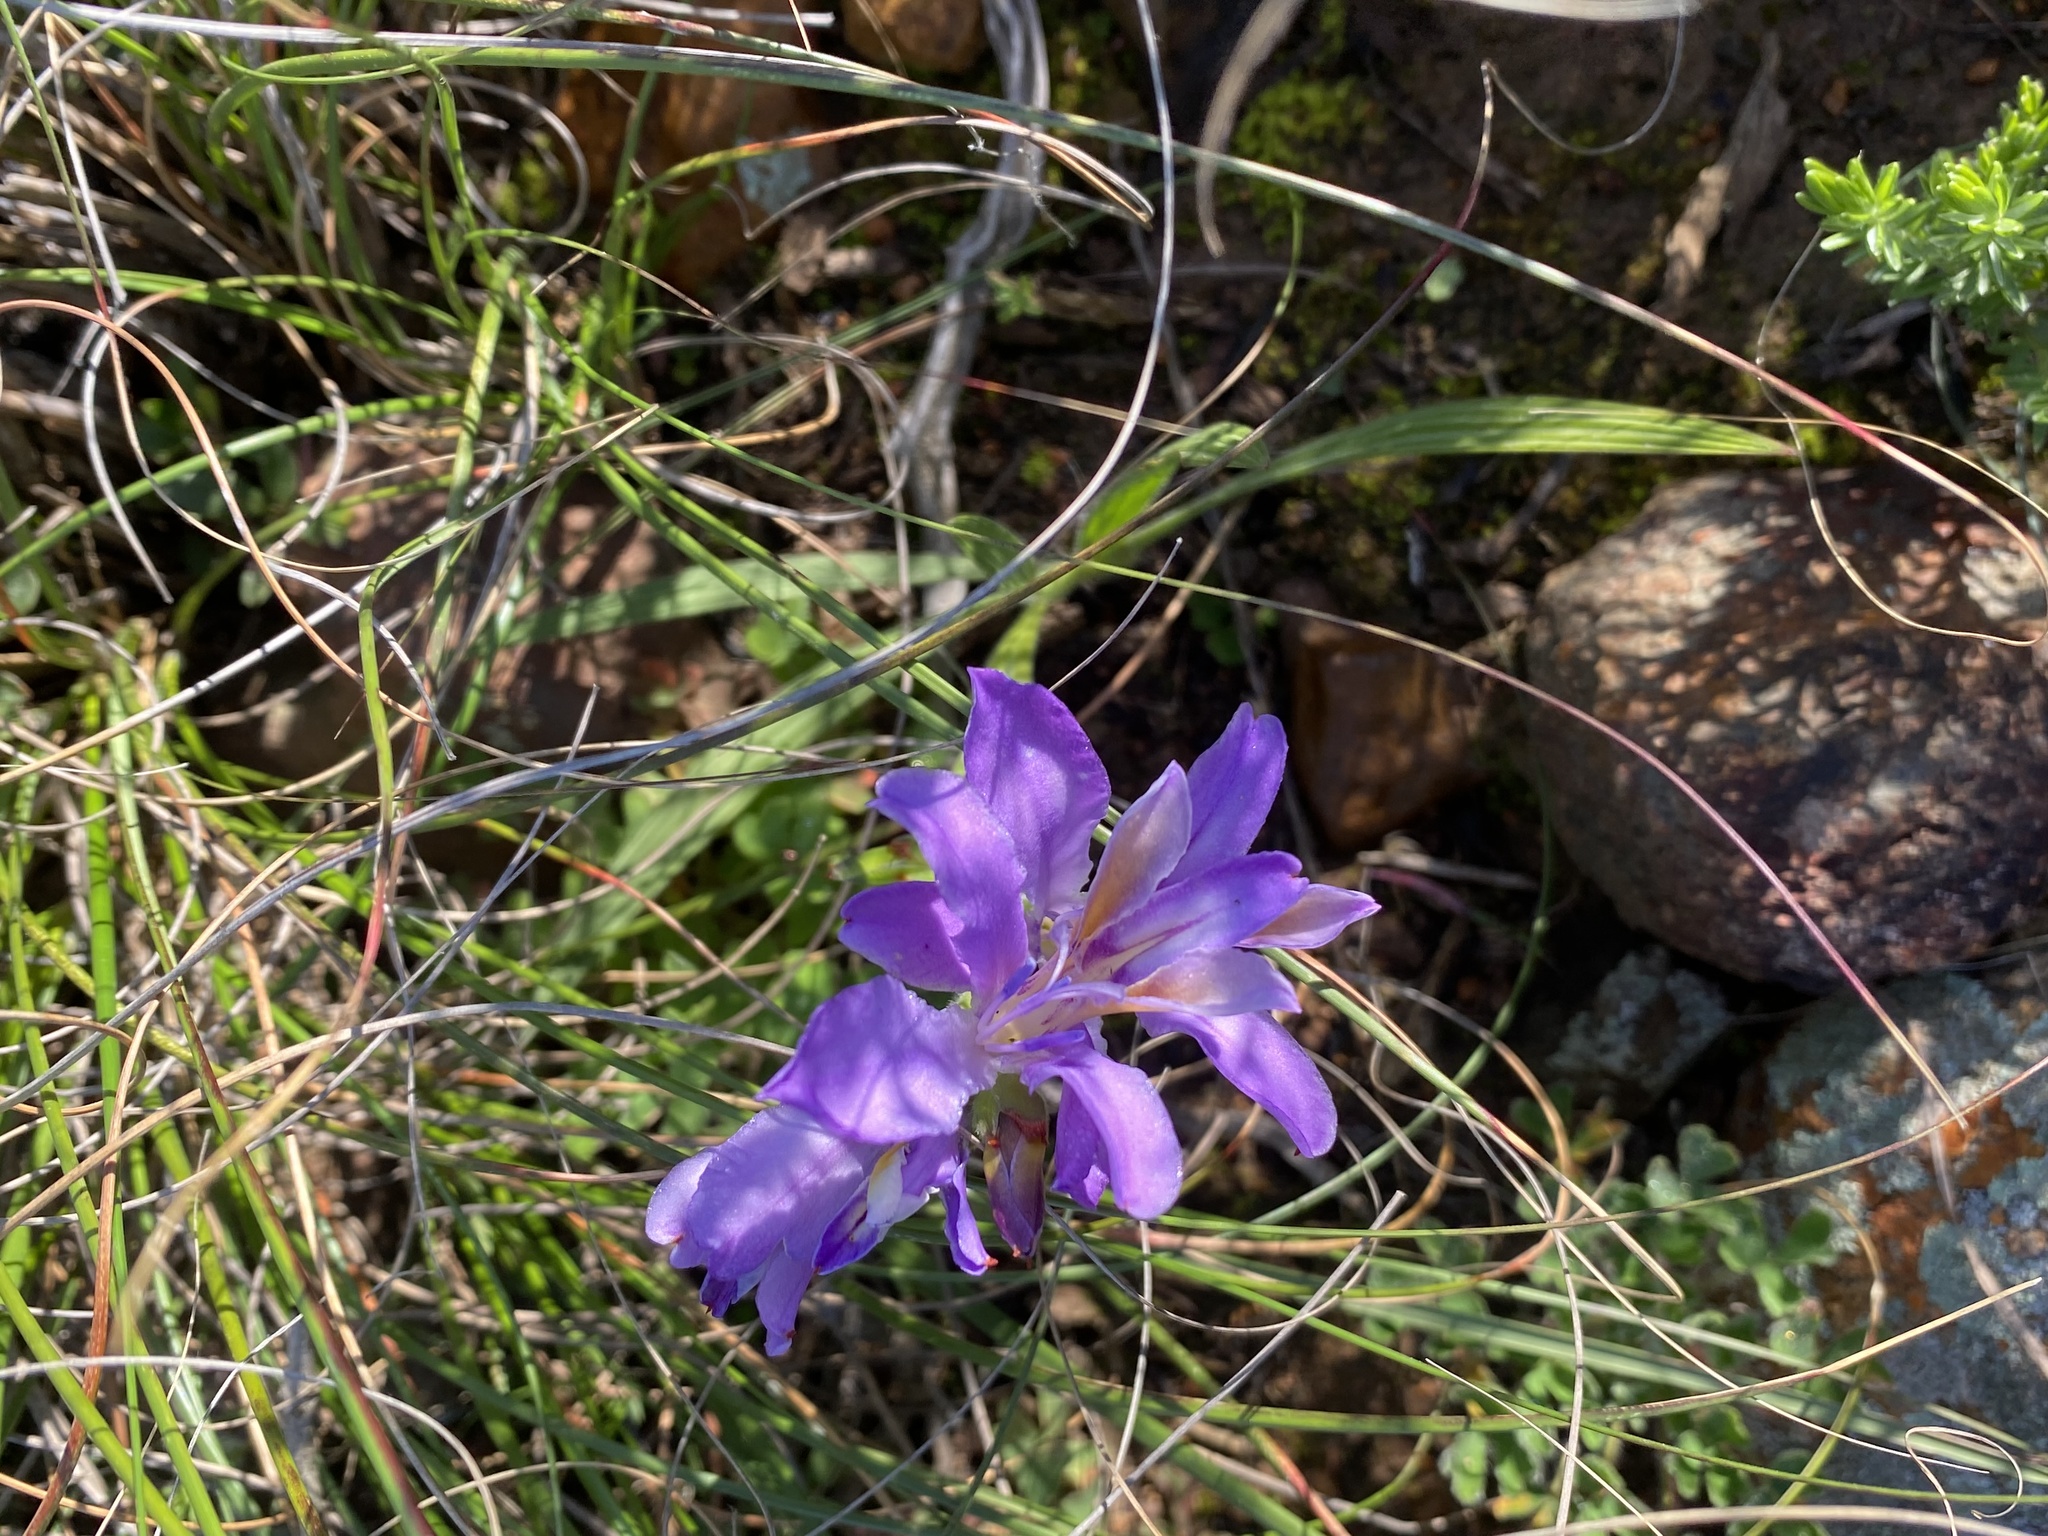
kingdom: Plantae
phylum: Tracheophyta
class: Liliopsida
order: Asparagales
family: Iridaceae
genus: Babiana
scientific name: Babiana ambigua
